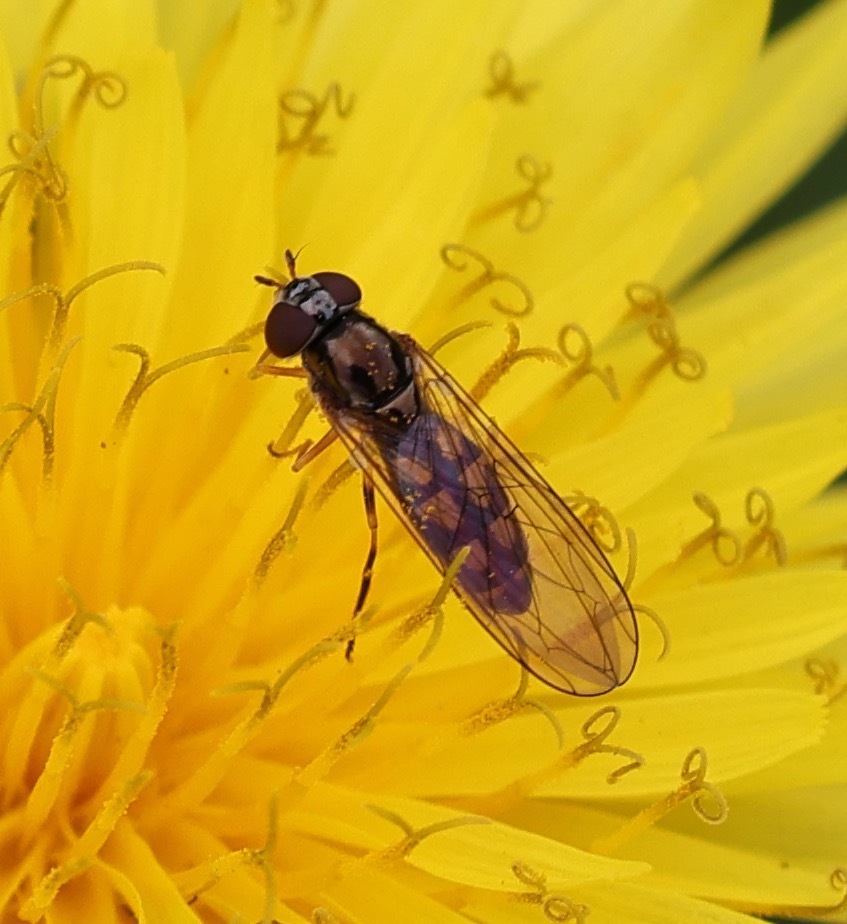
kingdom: Animalia
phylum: Arthropoda
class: Insecta
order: Diptera
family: Syrphidae
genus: Melanostoma
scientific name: Melanostoma scalare
